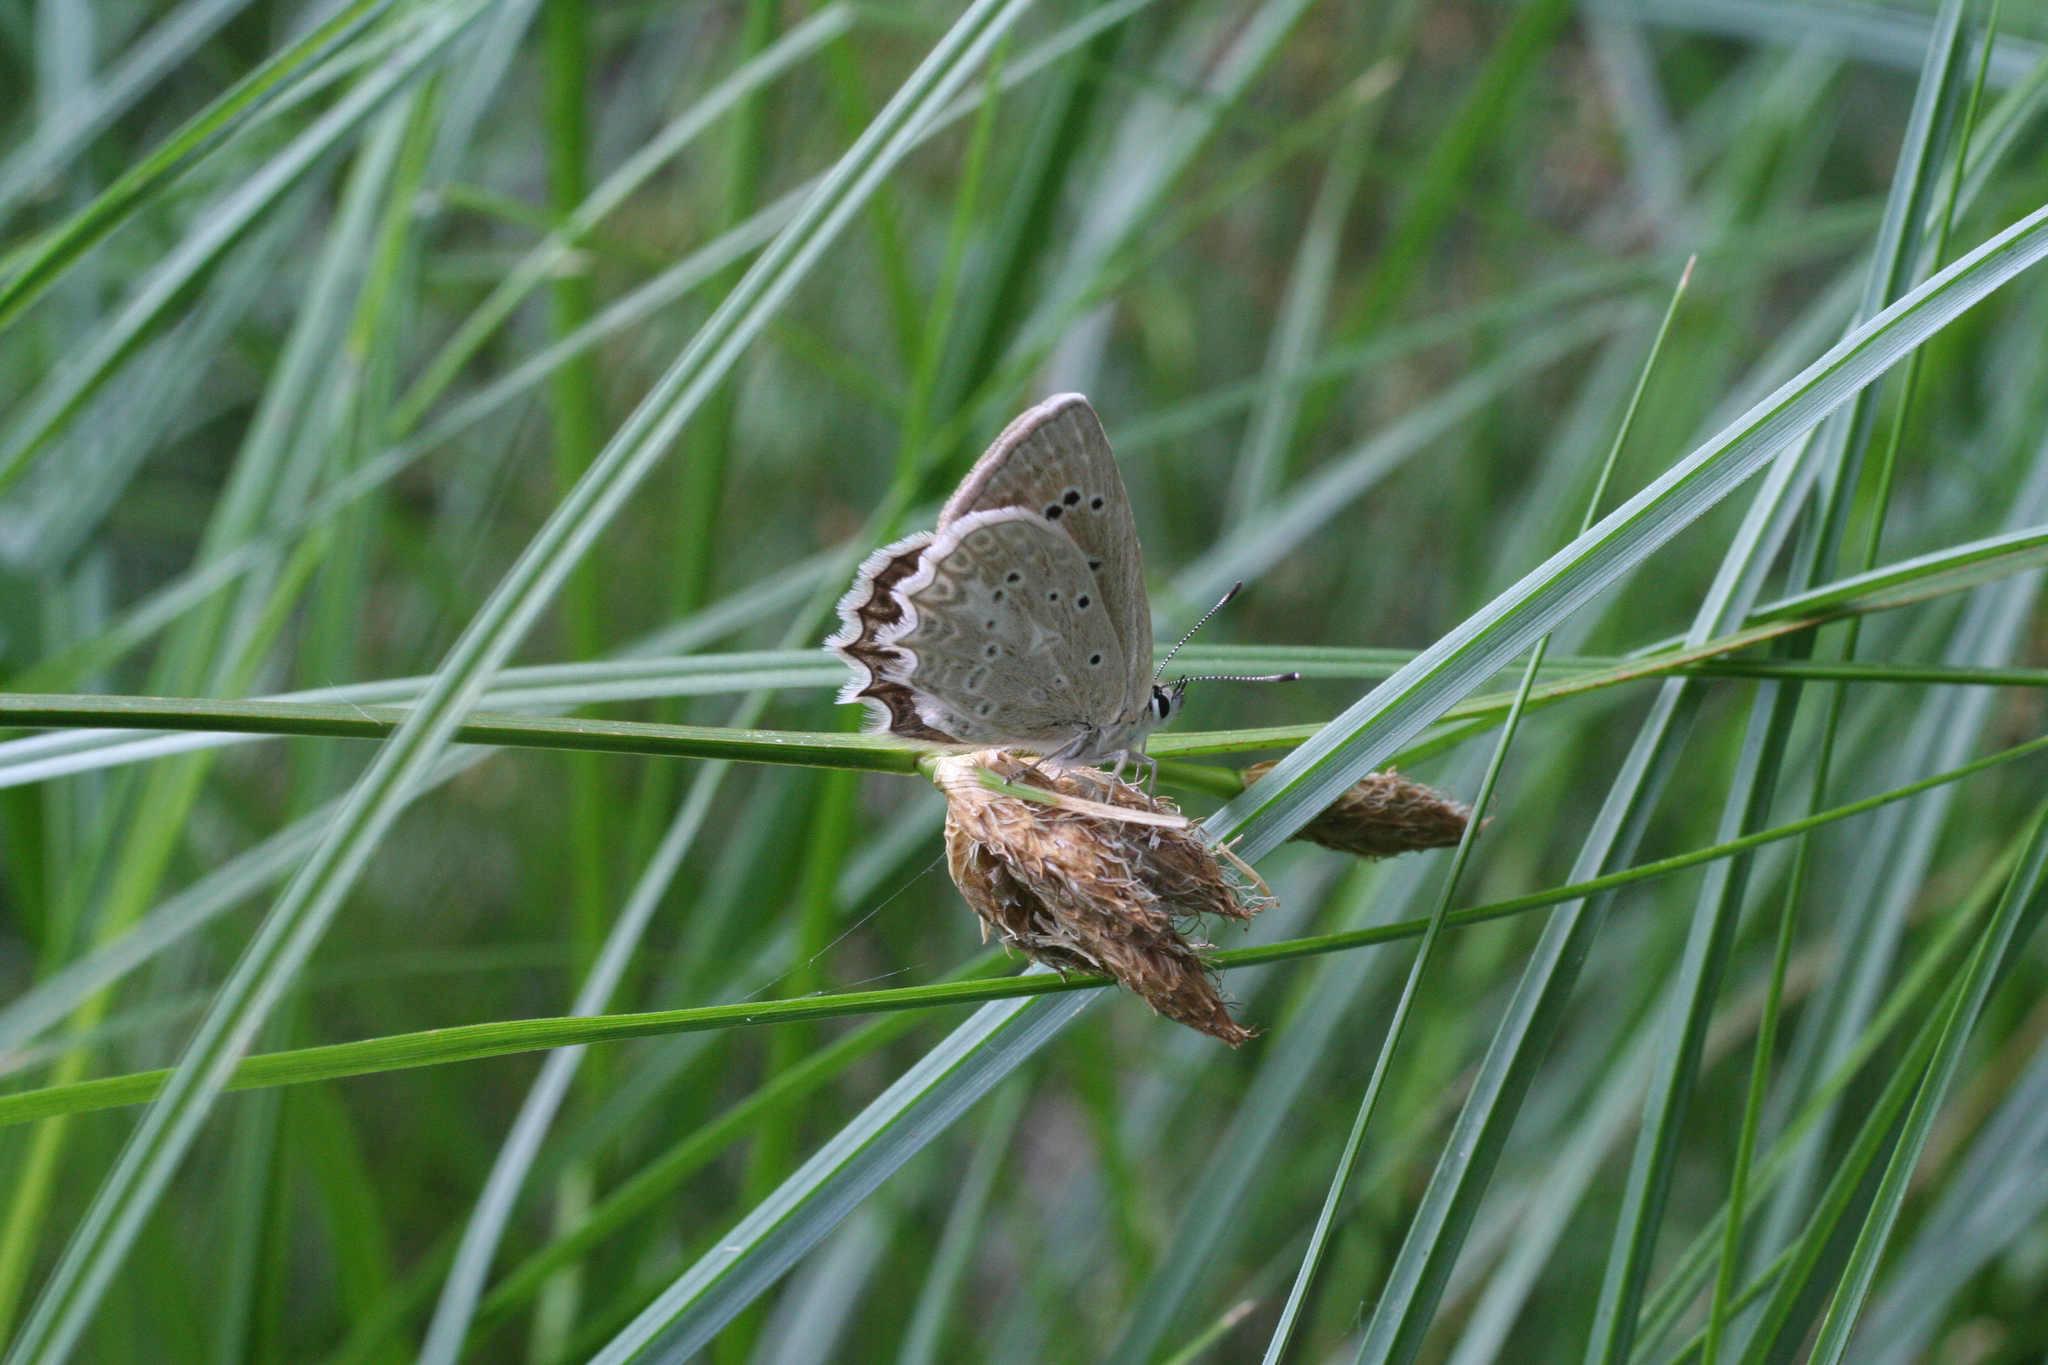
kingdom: Plantae
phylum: Tracheophyta
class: Liliopsida
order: Poales
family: Cyperaceae
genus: Bolboschoenus
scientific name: Bolboschoenus maritimus
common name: Sea club-rush
